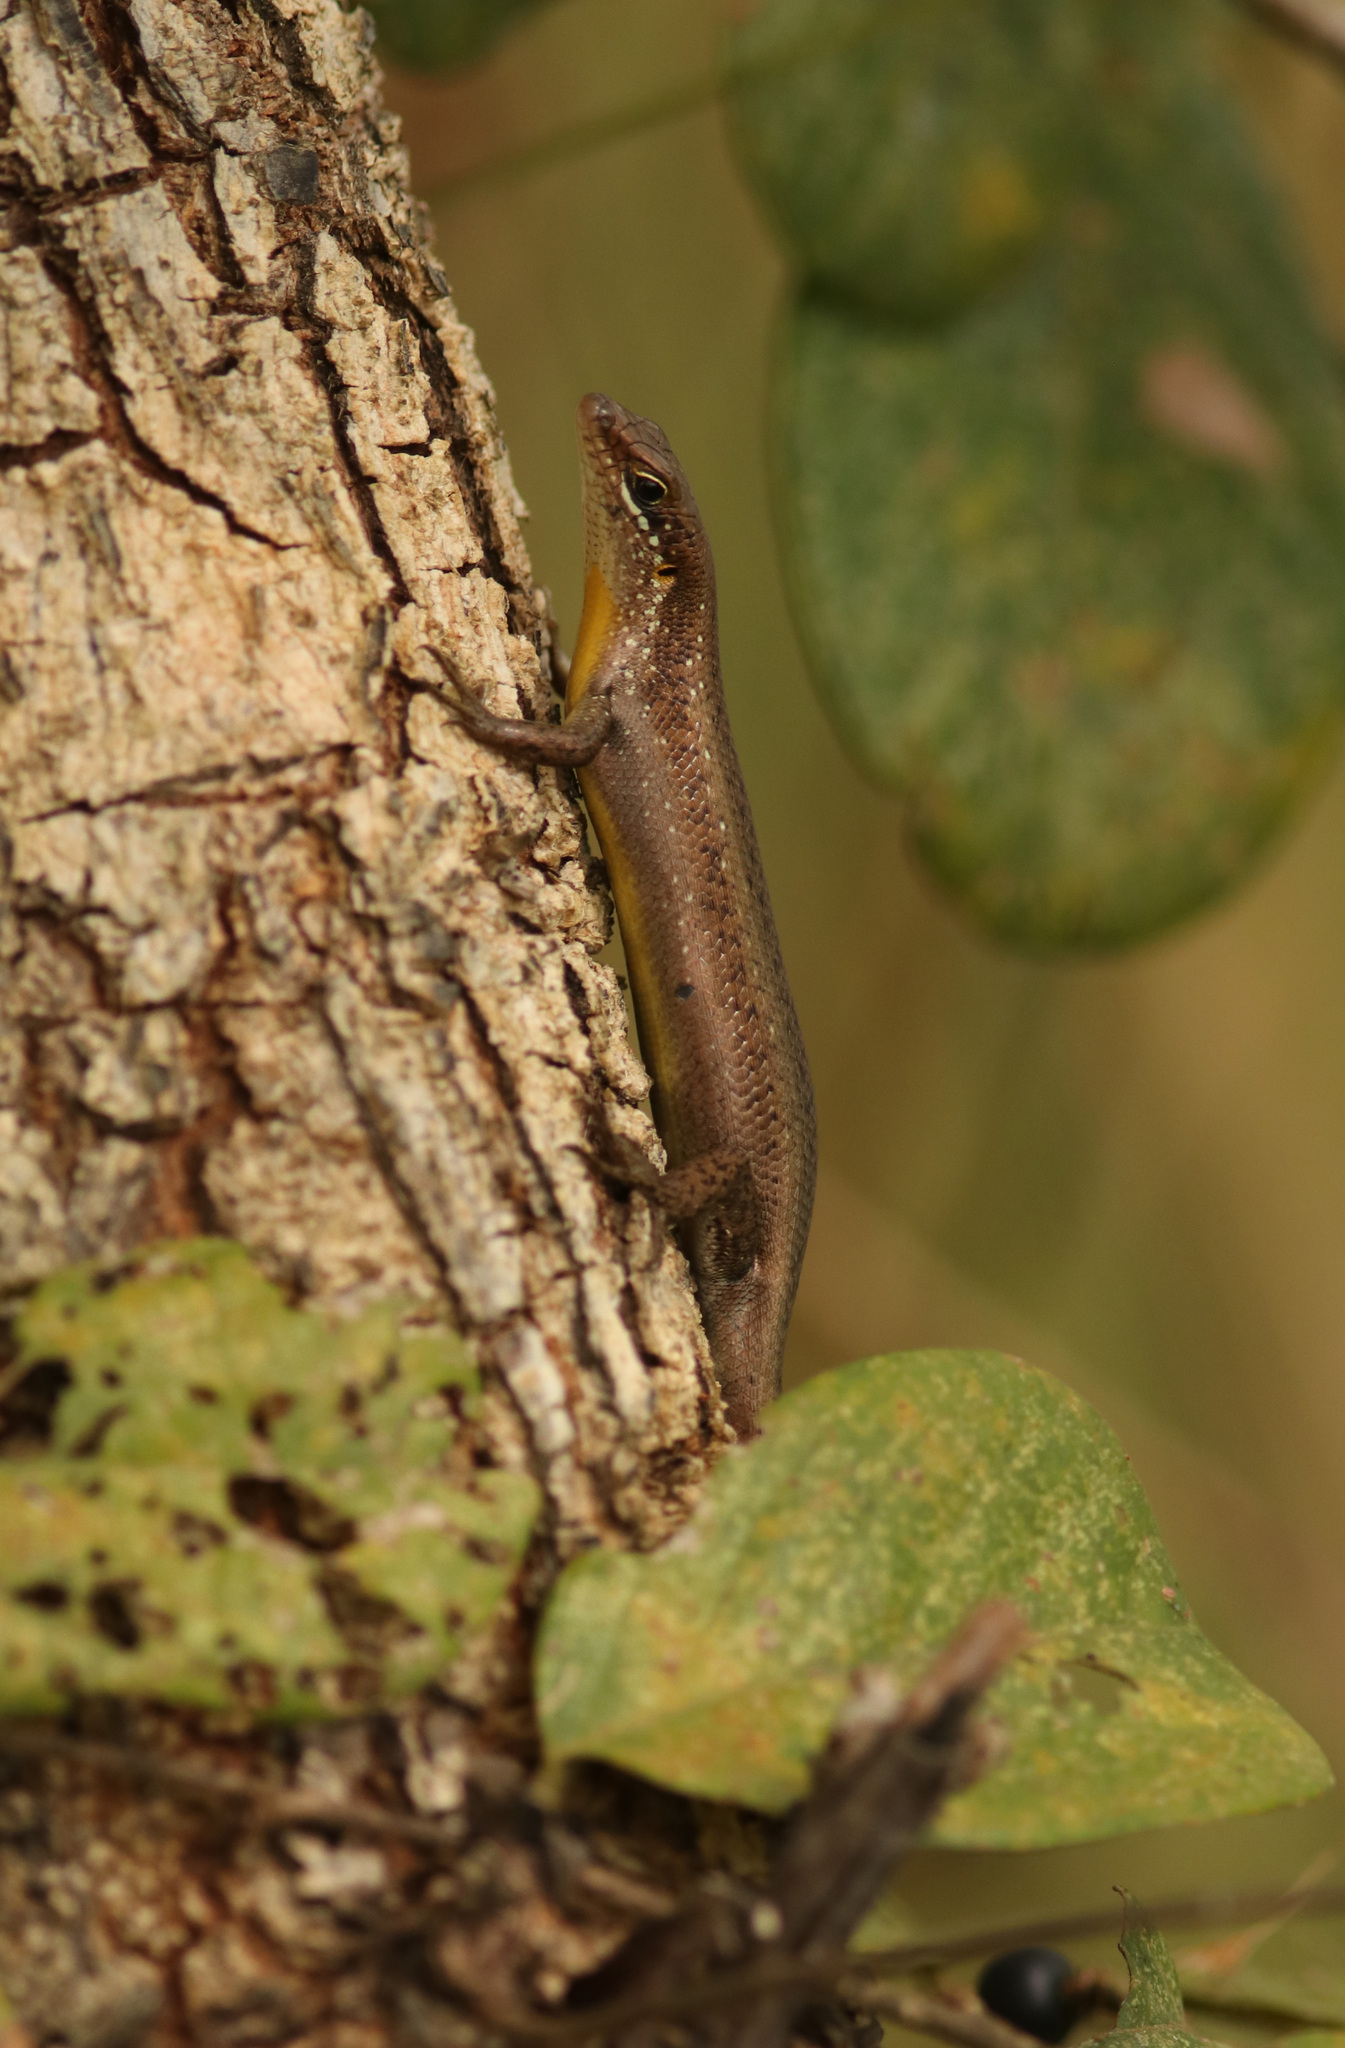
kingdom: Animalia
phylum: Chordata
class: Squamata
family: Scincidae
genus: Trachylepis
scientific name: Trachylepis maculilabris
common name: Speckle-lipped mabuya
